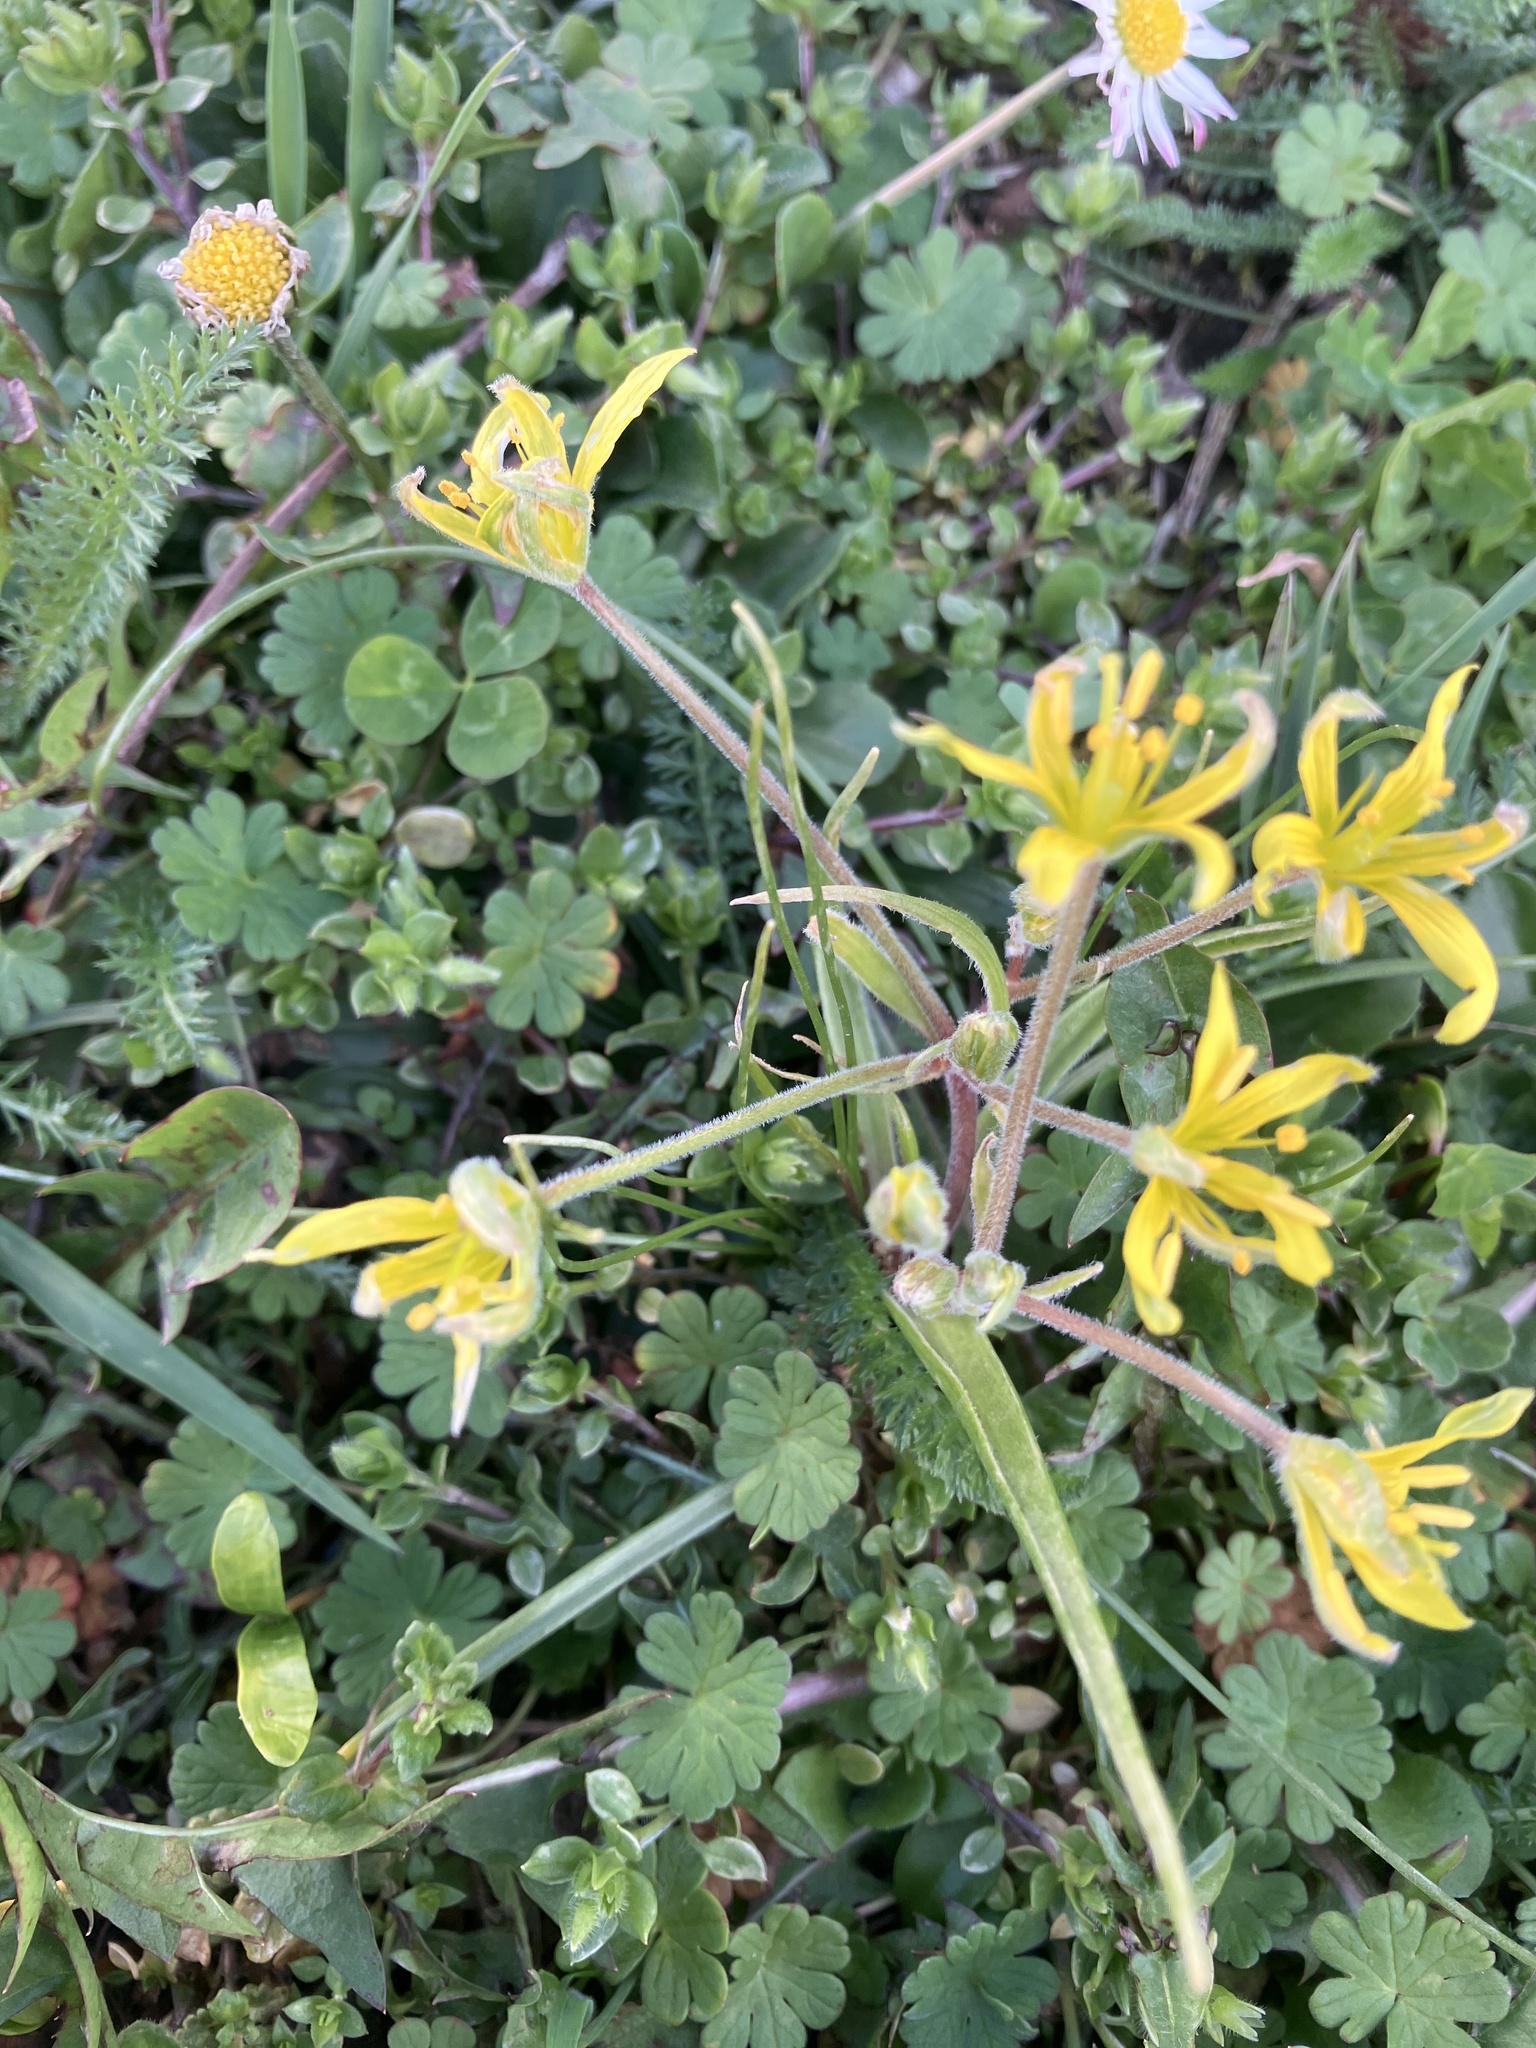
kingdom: Plantae
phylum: Tracheophyta
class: Liliopsida
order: Liliales
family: Liliaceae
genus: Gagea
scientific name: Gagea villosa
